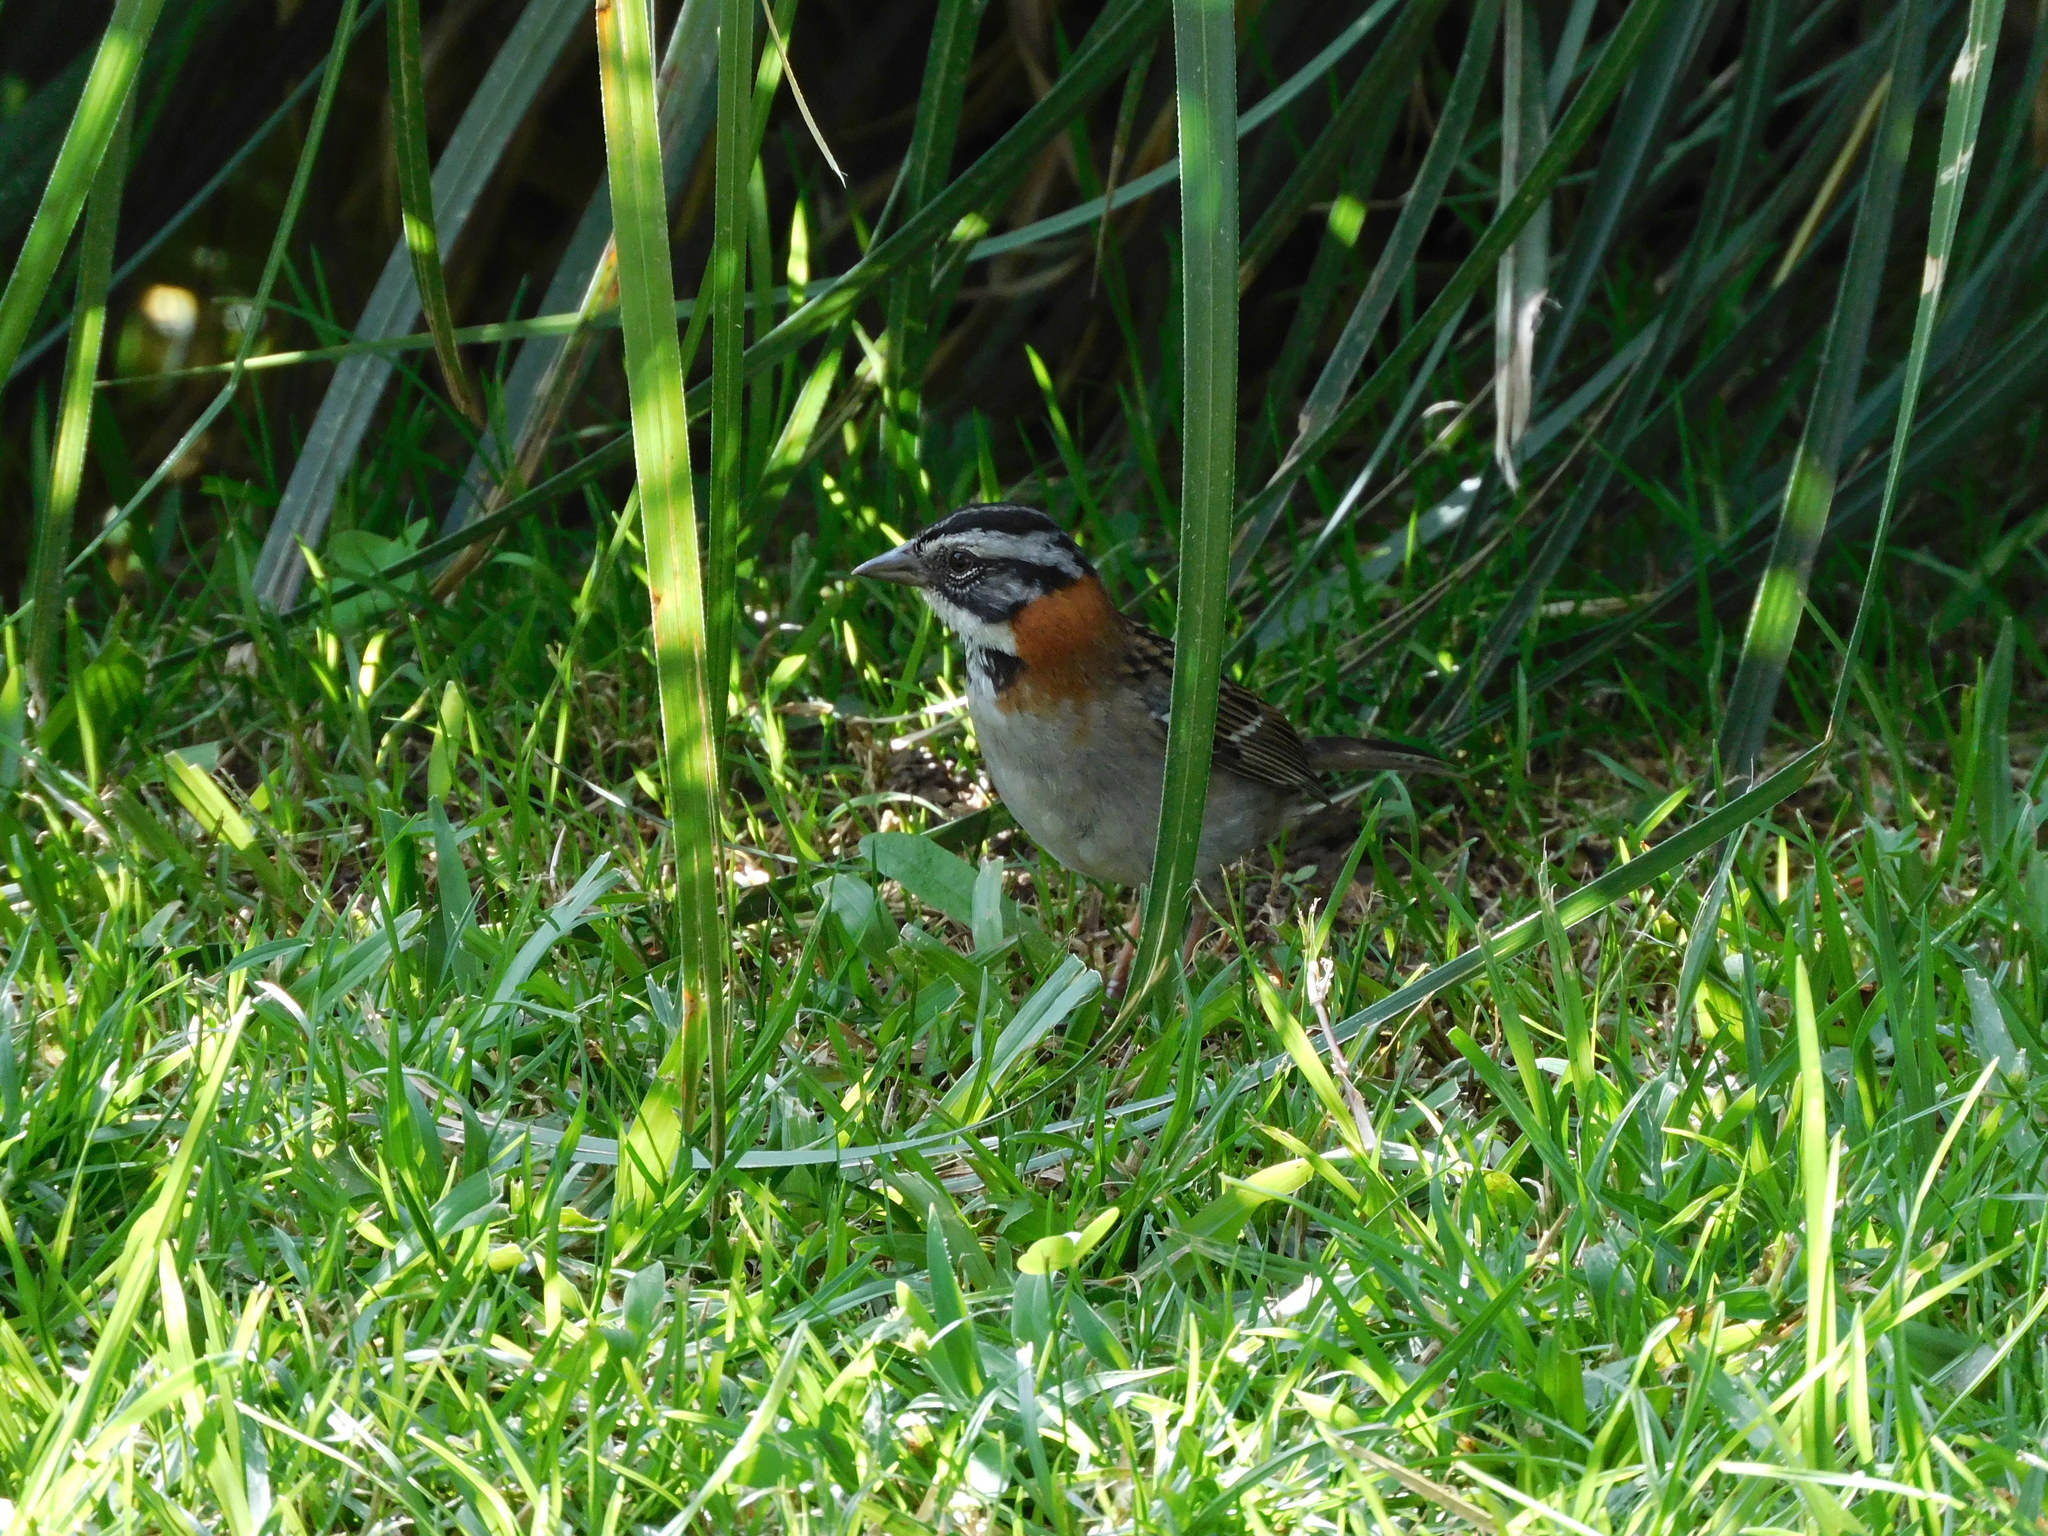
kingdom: Animalia
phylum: Chordata
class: Aves
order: Passeriformes
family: Passerellidae
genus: Zonotrichia
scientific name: Zonotrichia capensis
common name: Rufous-collared sparrow
